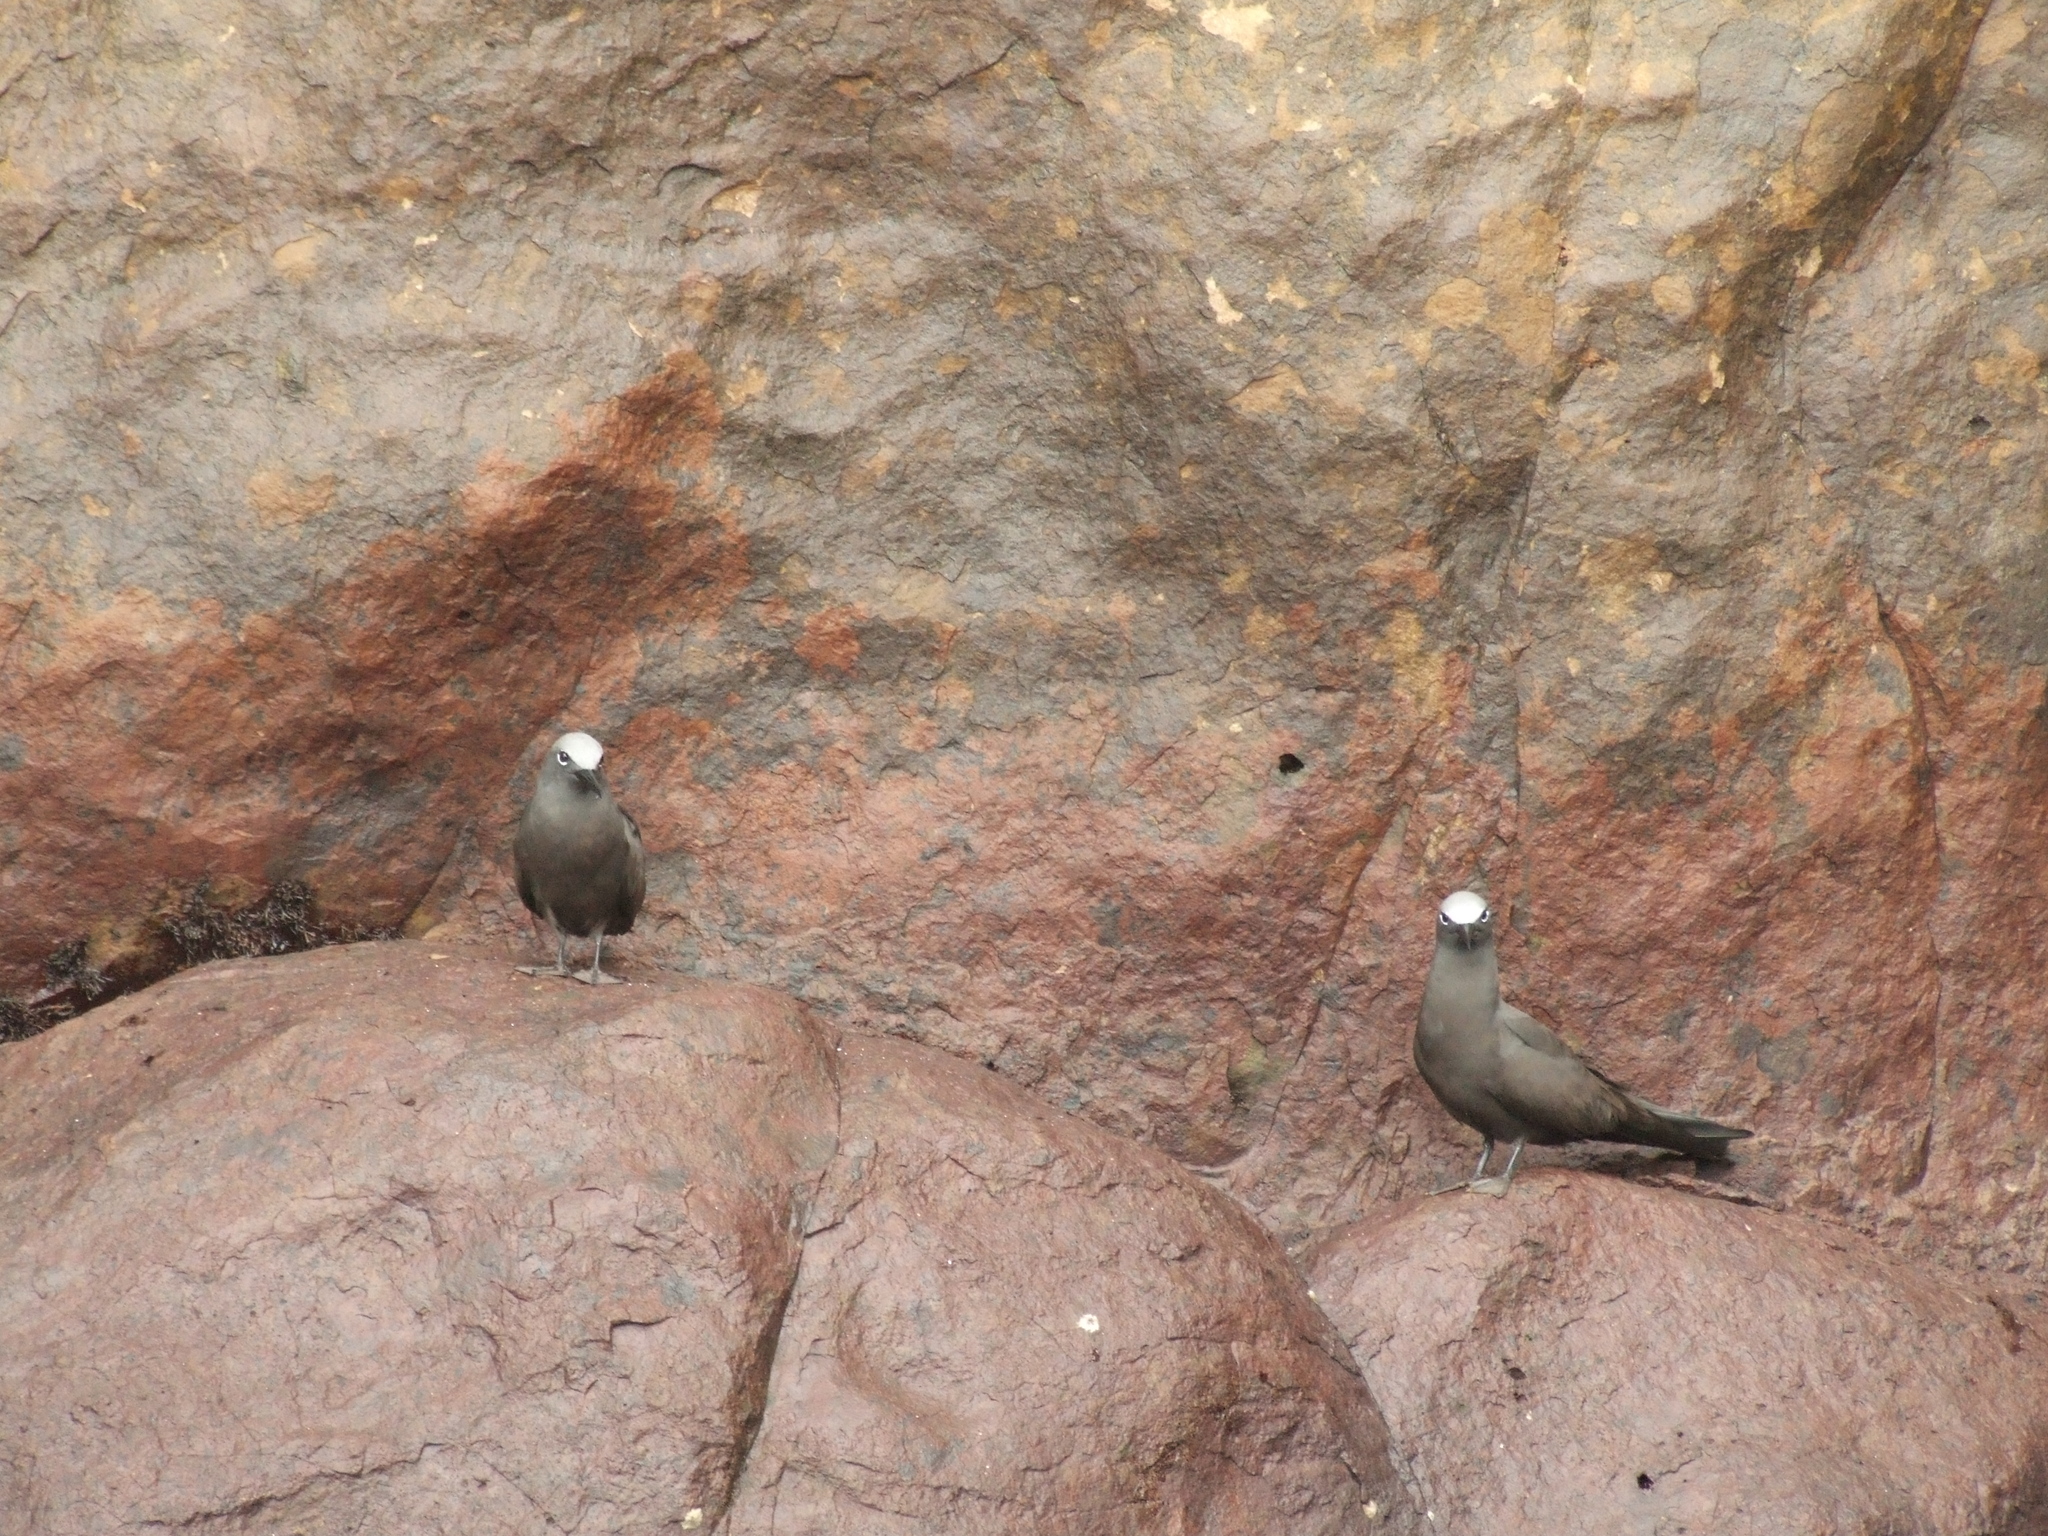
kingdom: Animalia
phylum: Chordata
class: Aves
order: Charadriiformes
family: Laridae
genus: Anous
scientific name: Anous stolidus
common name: Brown noddy
